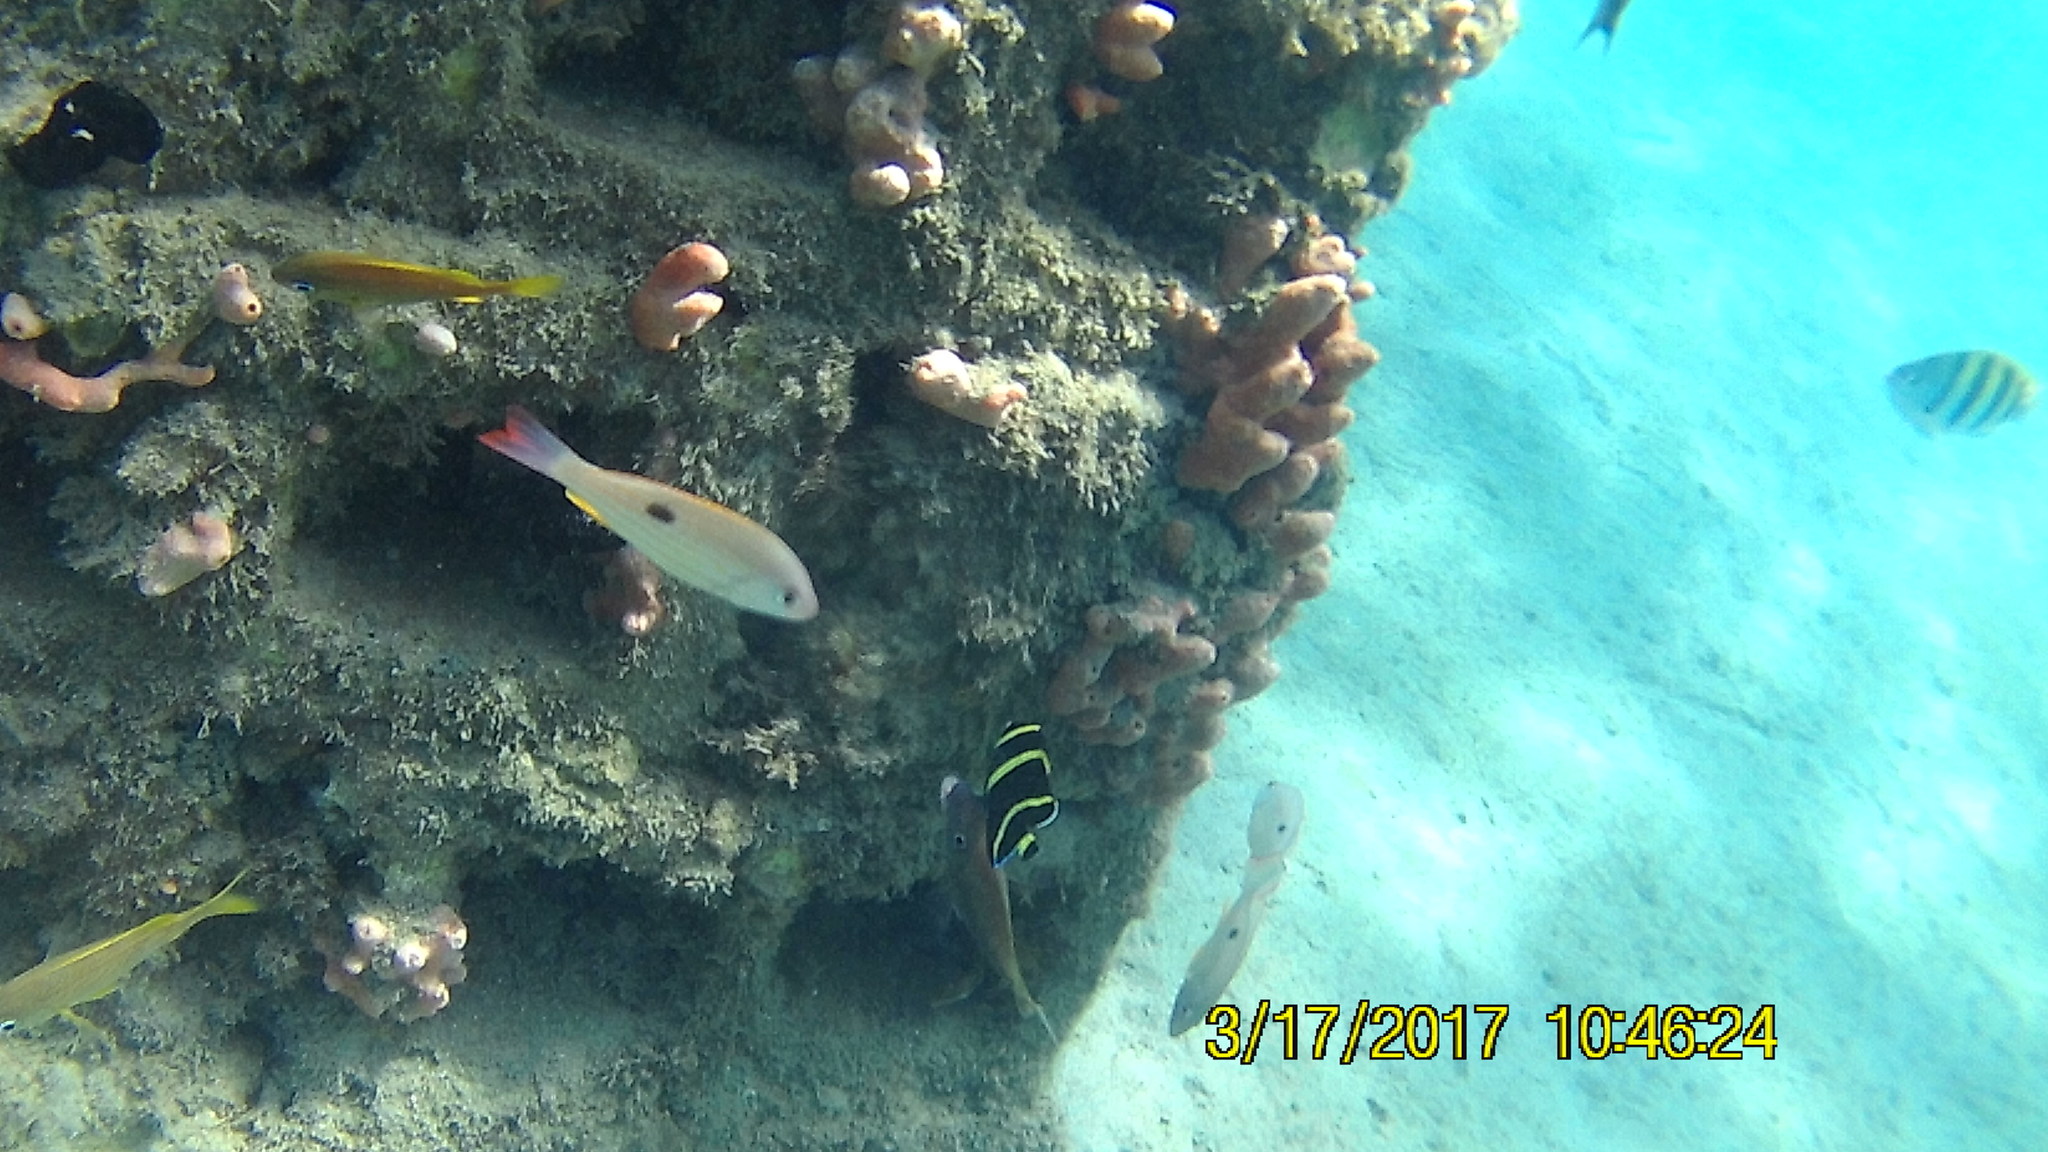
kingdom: Animalia
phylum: Chordata
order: Perciformes
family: Lutjanidae
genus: Lutjanus
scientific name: Lutjanus synagris
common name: Lane snapper
